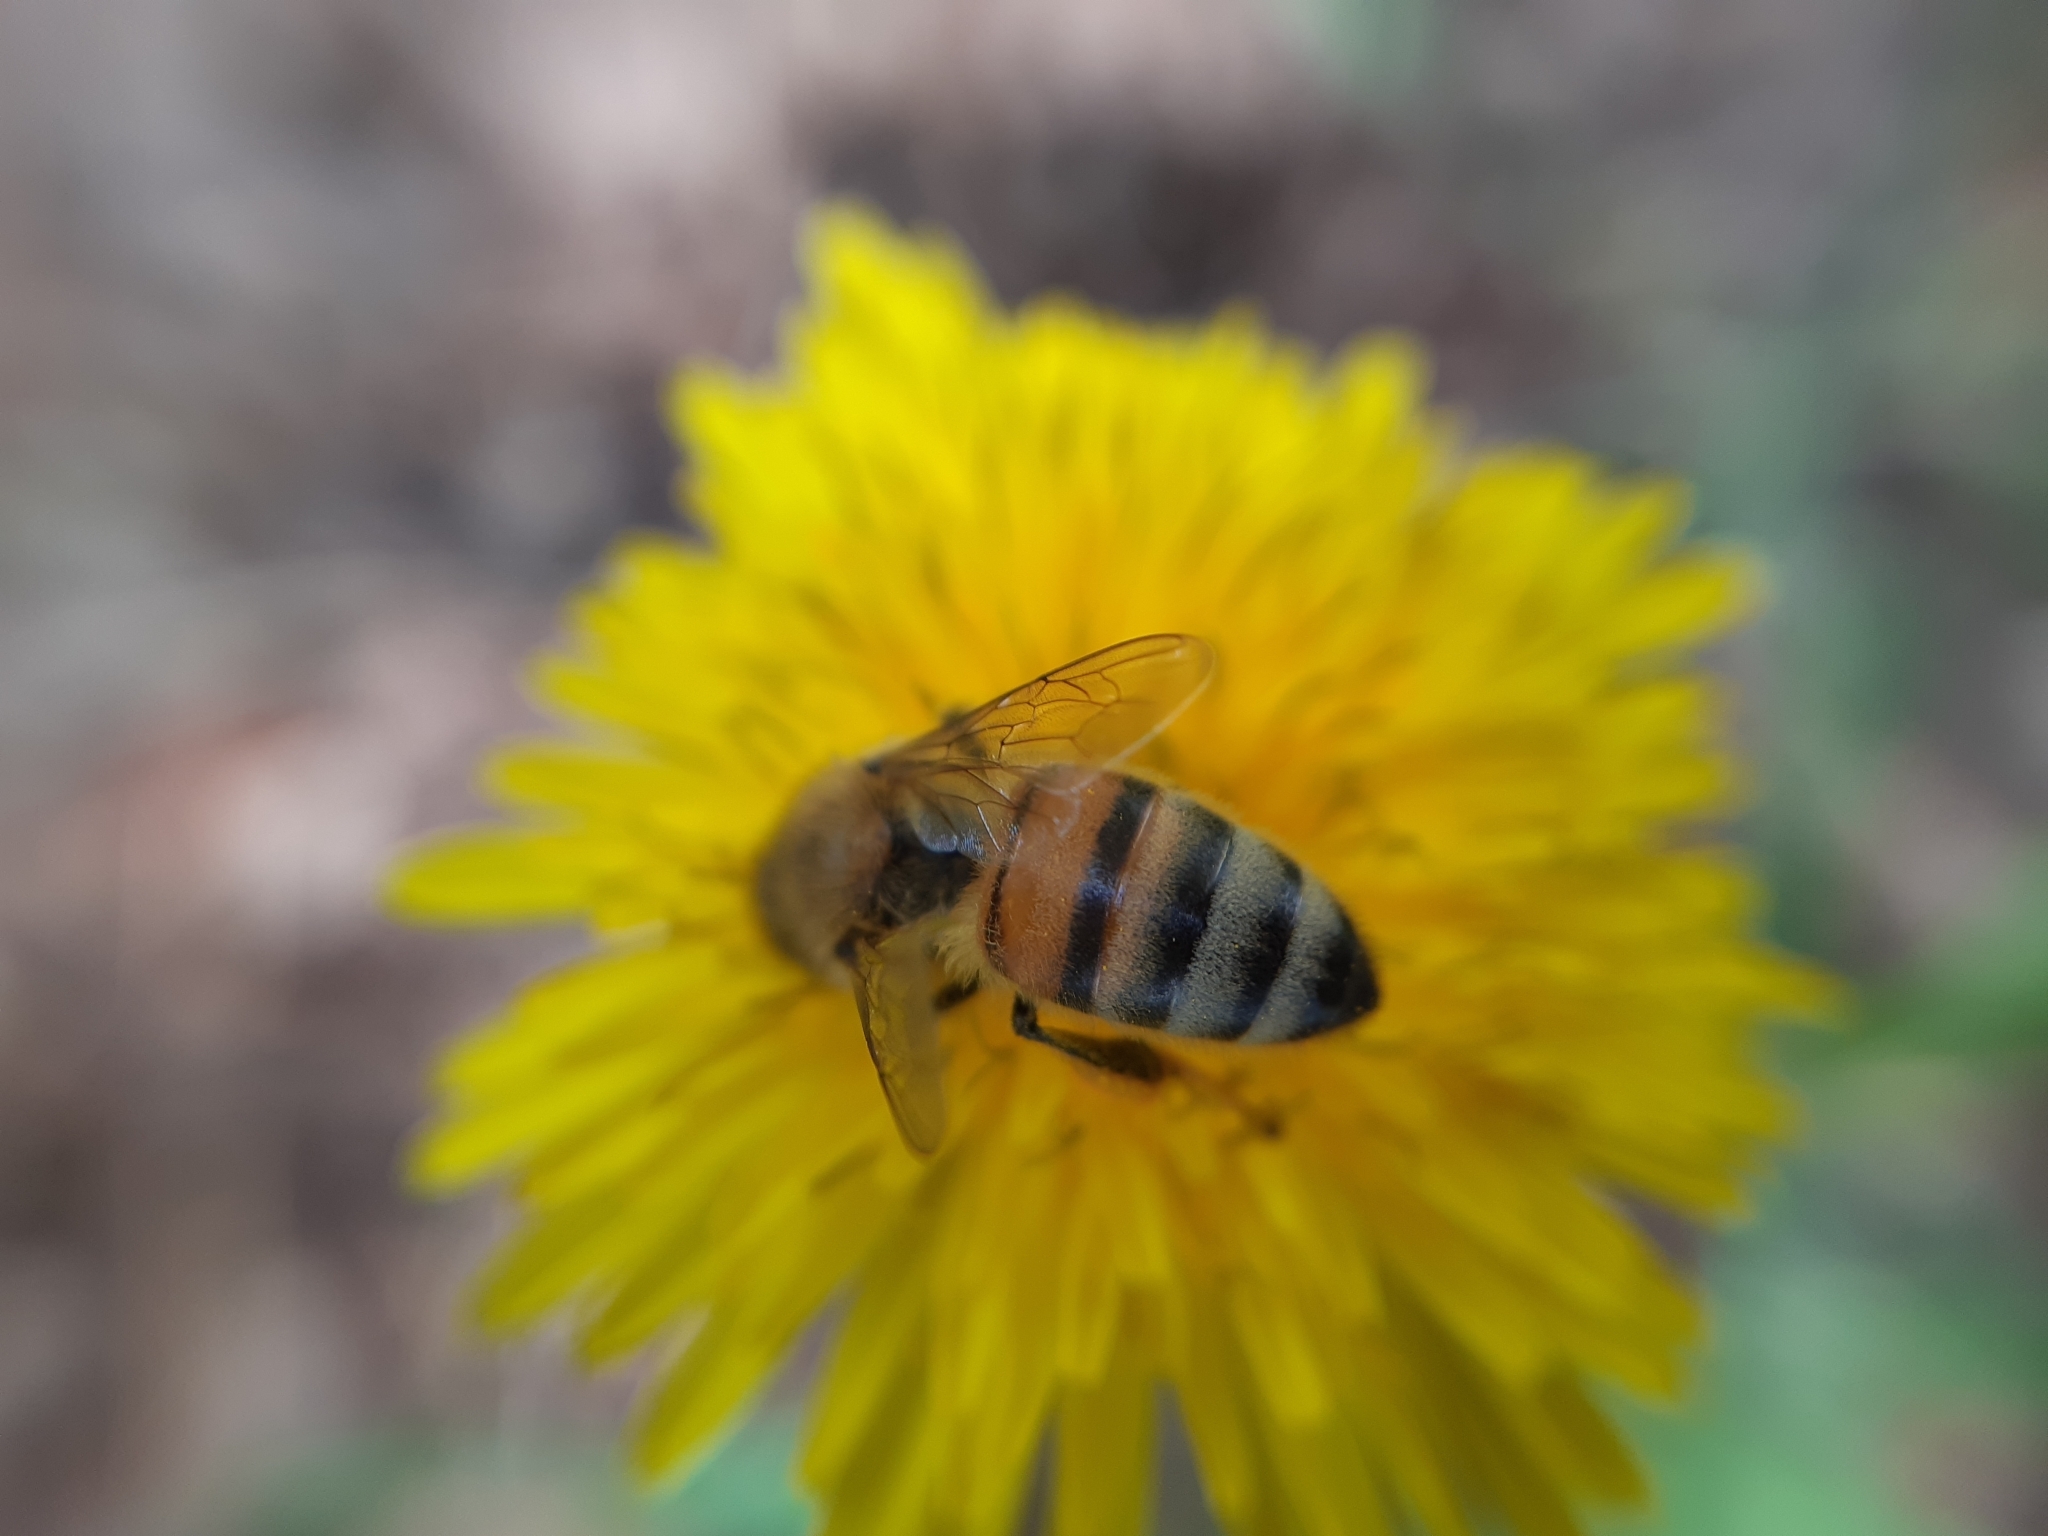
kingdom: Animalia
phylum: Arthropoda
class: Insecta
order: Hymenoptera
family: Apidae
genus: Apis
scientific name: Apis mellifera
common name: Honey bee
